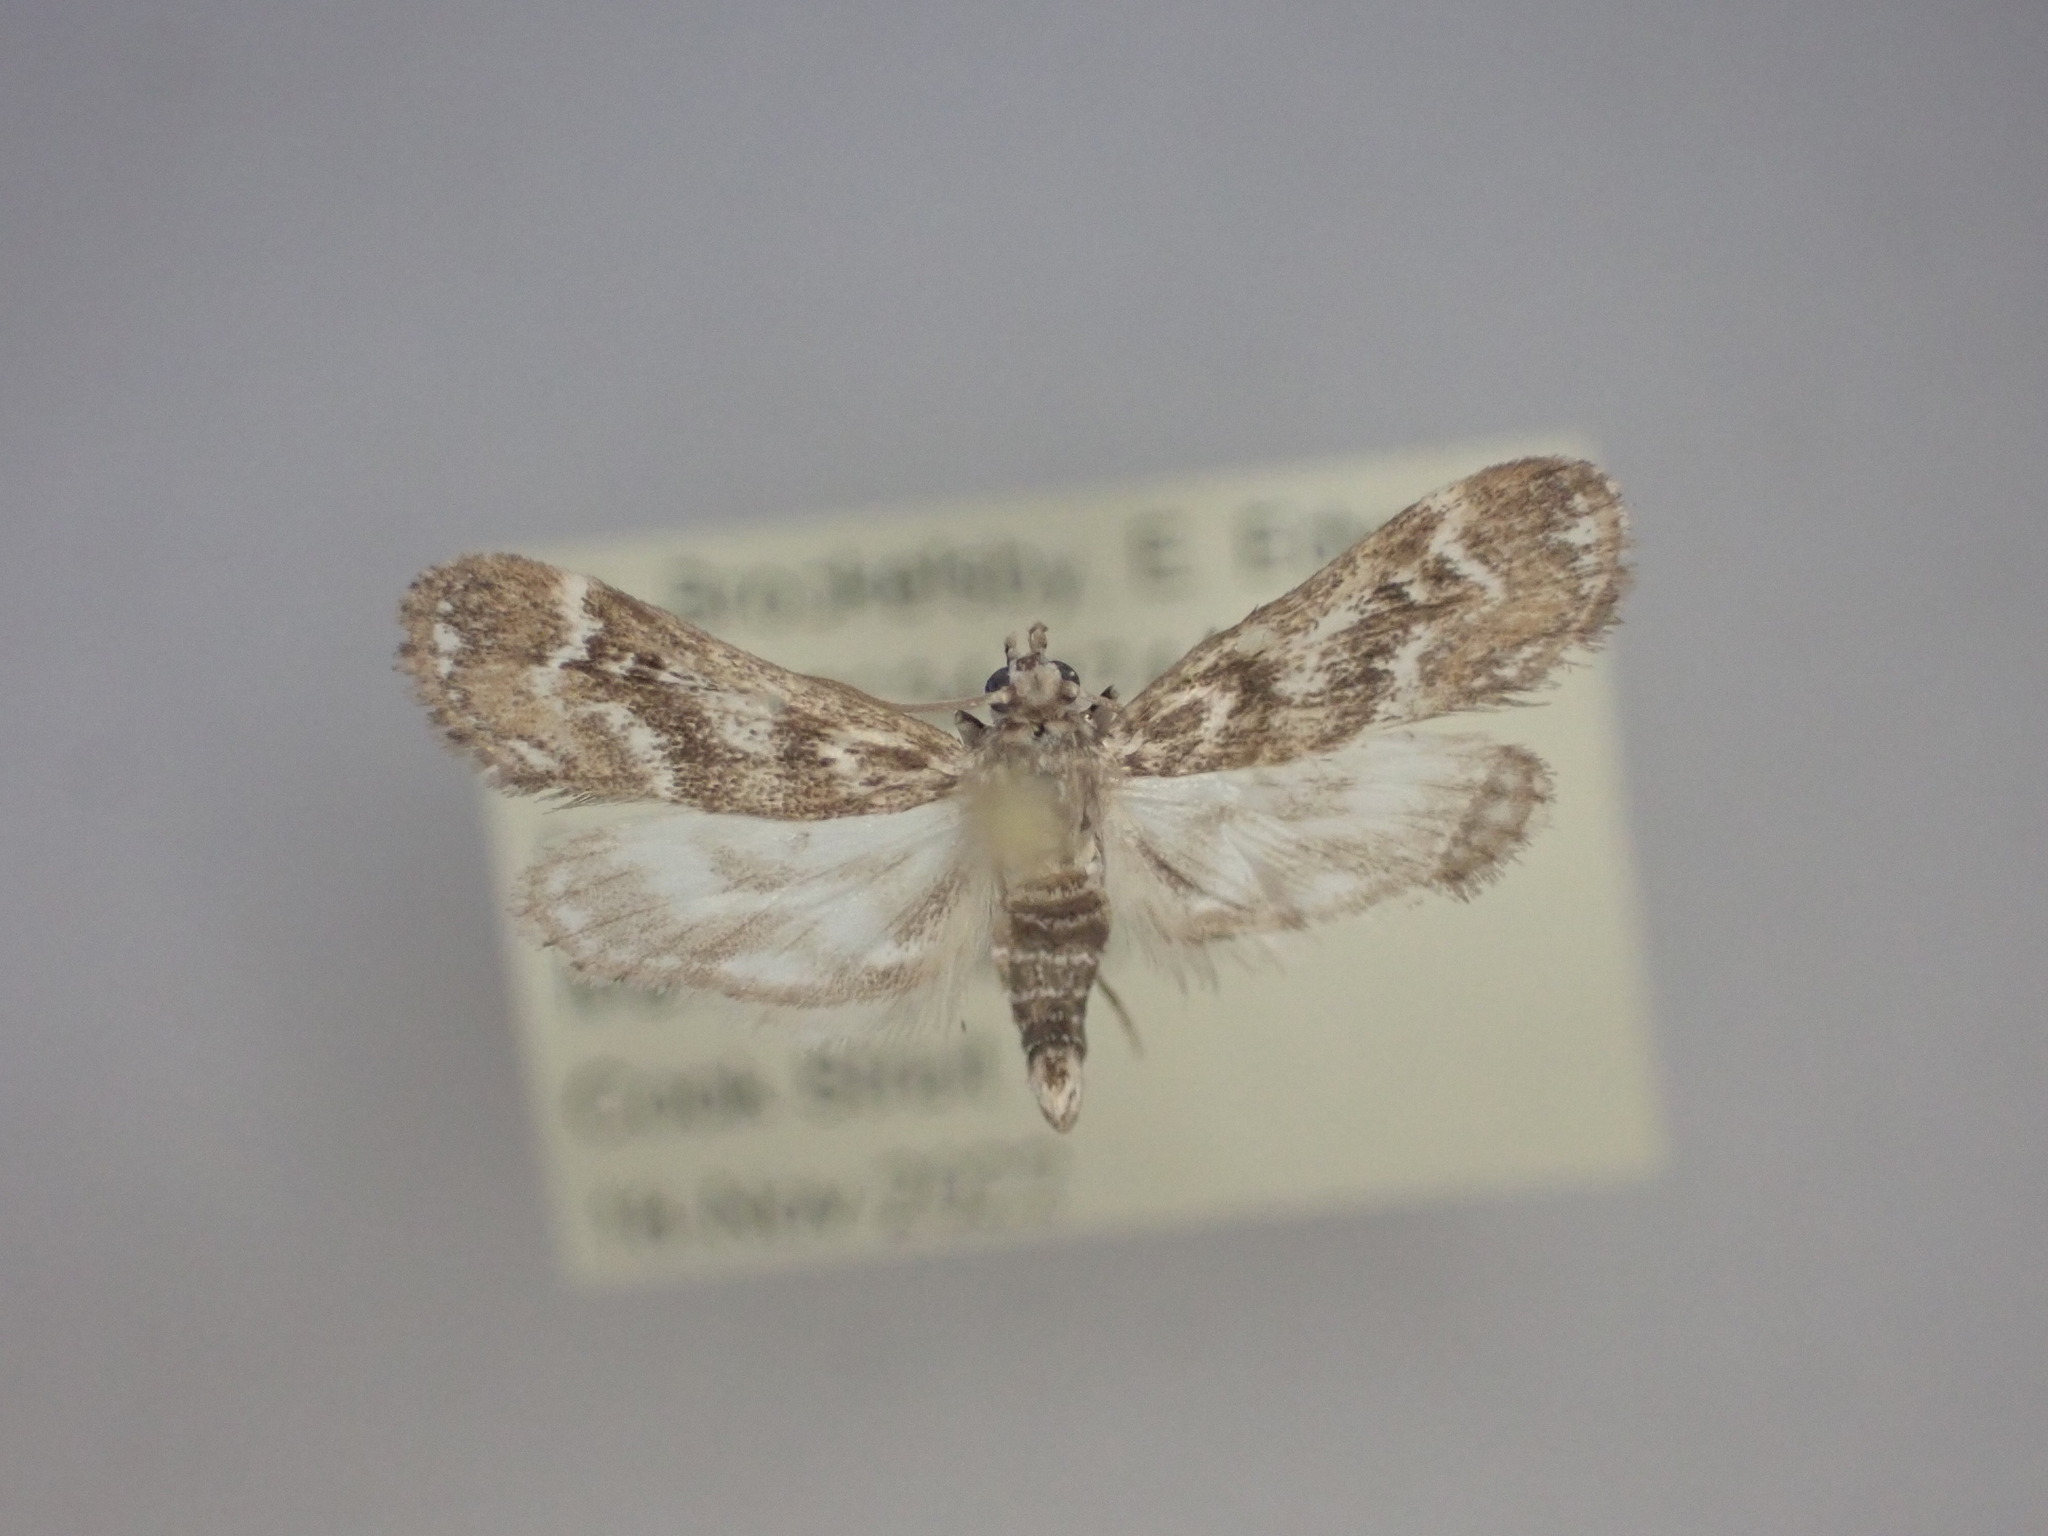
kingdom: Animalia
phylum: Arthropoda
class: Insecta
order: Lepidoptera
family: Crambidae
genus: Hygraula
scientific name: Hygraula nitens
